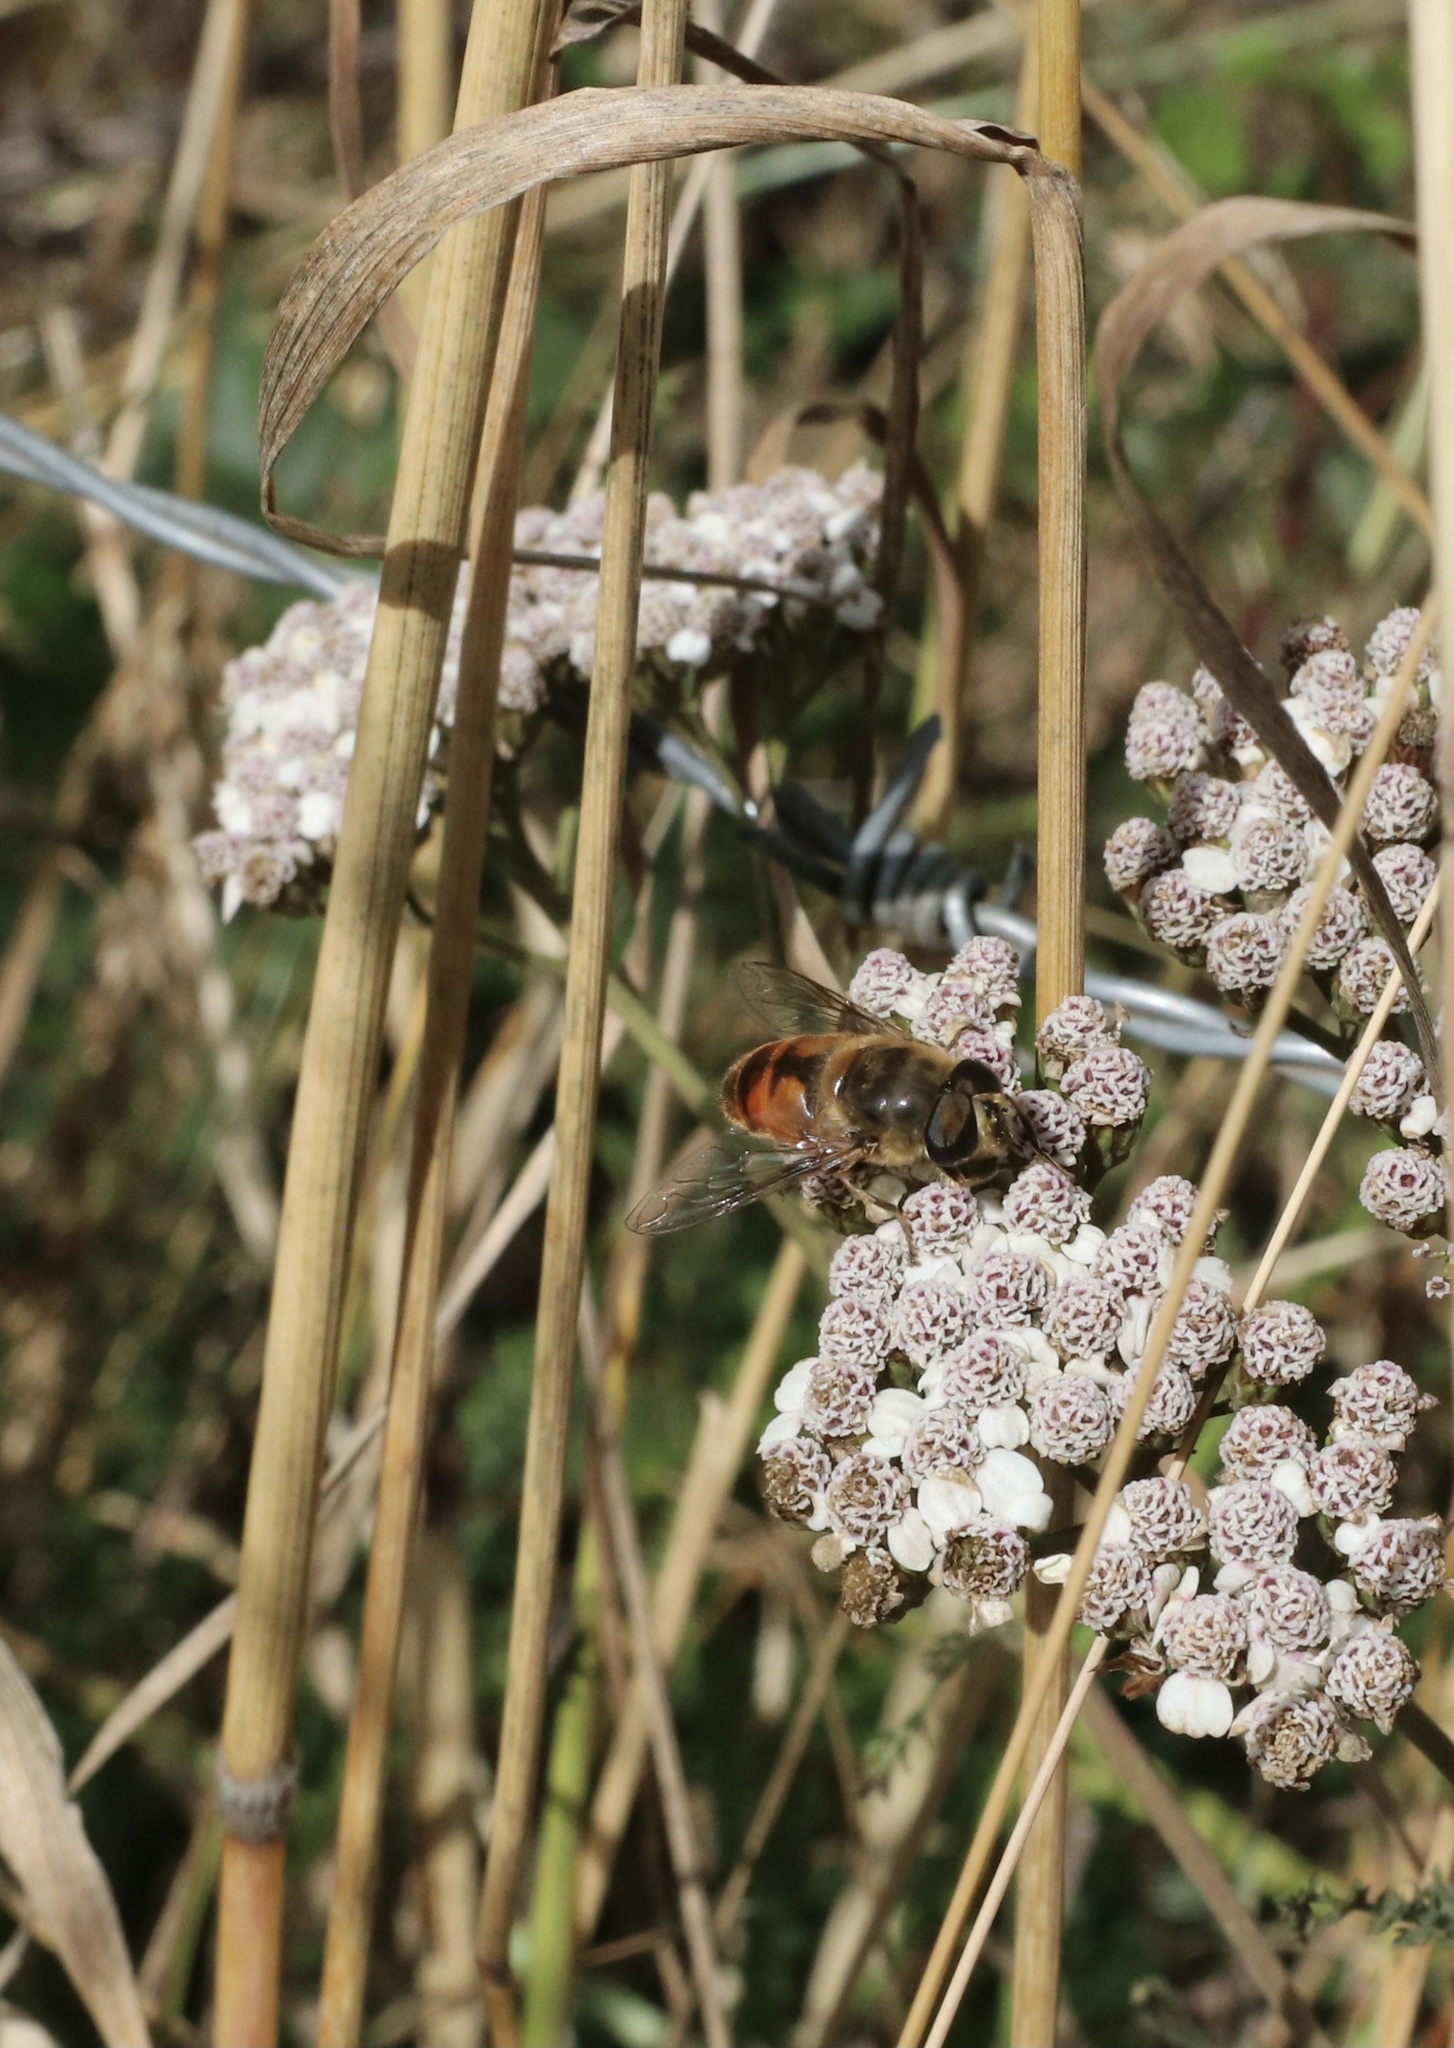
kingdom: Animalia
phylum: Arthropoda
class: Insecta
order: Diptera
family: Syrphidae
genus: Eristalis
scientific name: Eristalis tenax
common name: Drone fly
